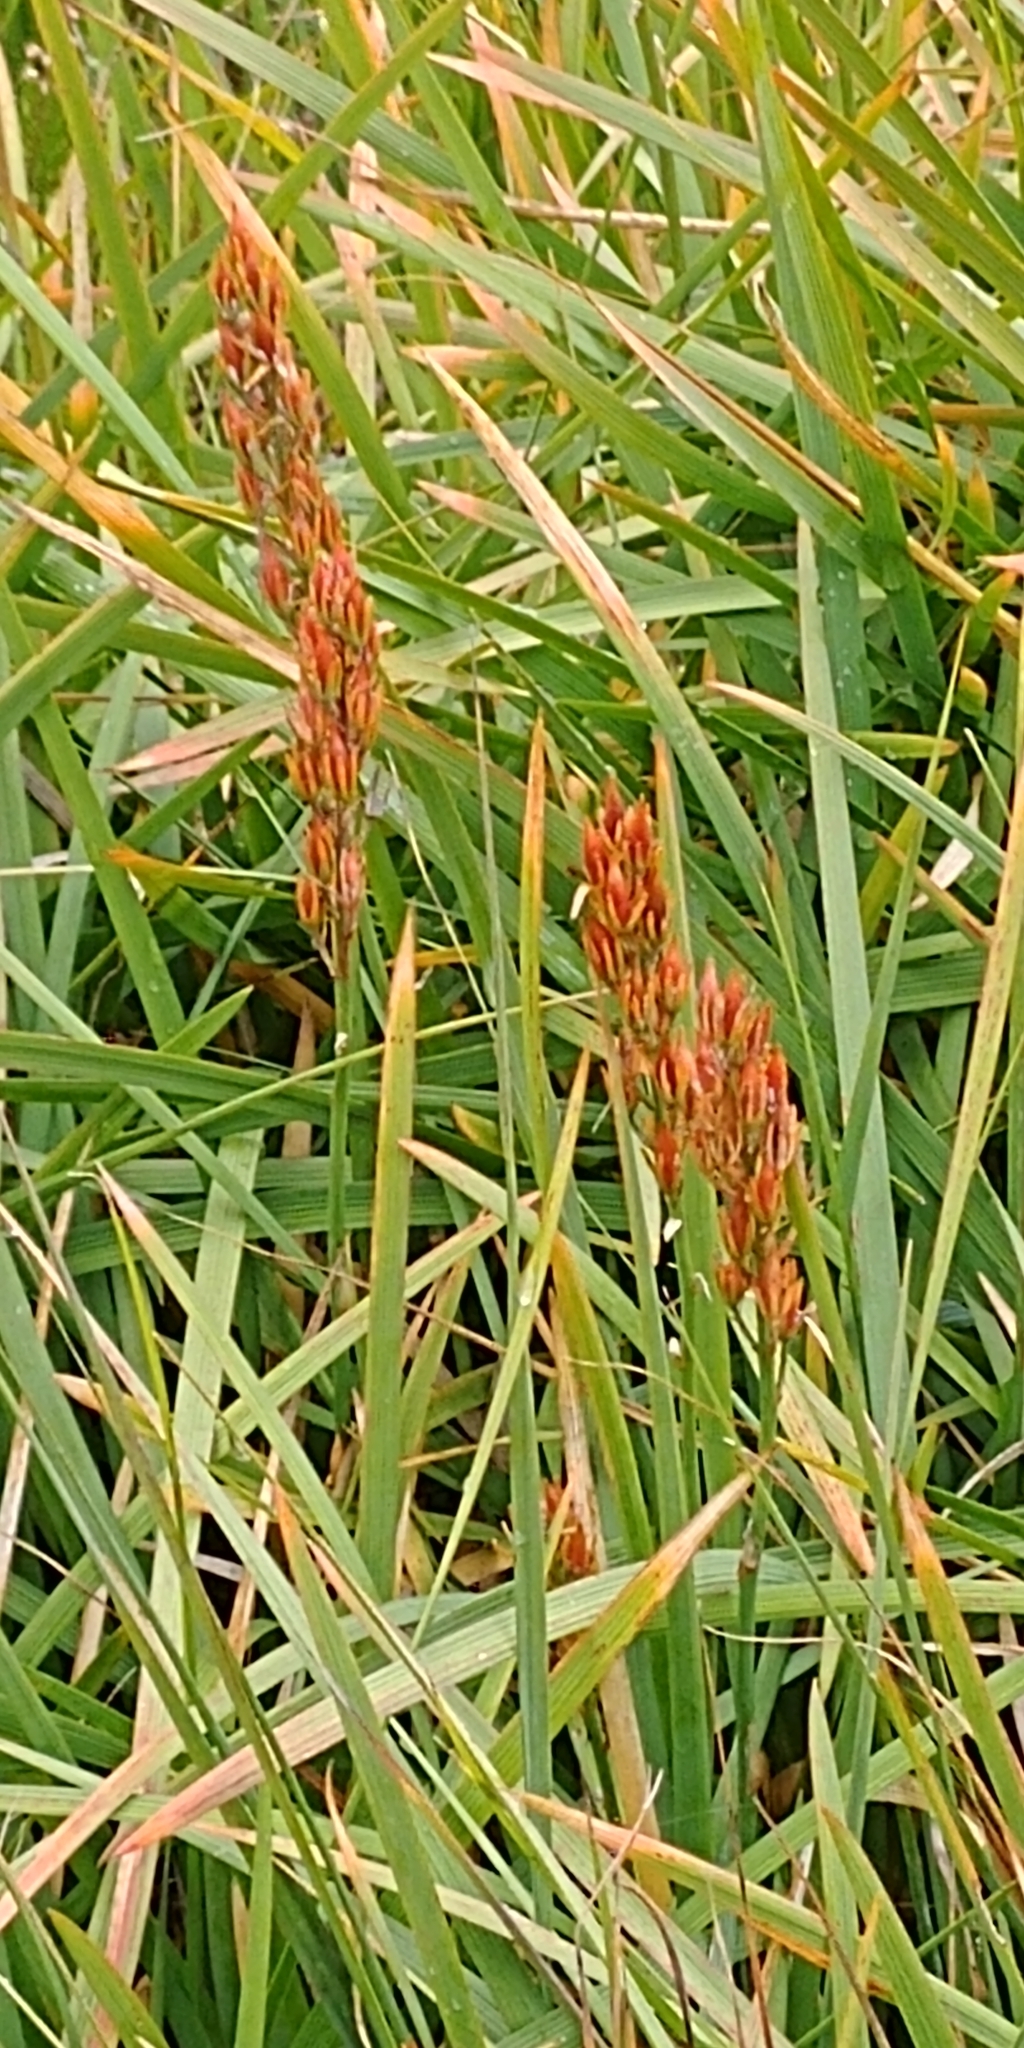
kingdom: Plantae
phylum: Tracheophyta
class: Liliopsida
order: Dioscoreales
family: Nartheciaceae
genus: Narthecium
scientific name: Narthecium ossifragum
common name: Bog asphodel
